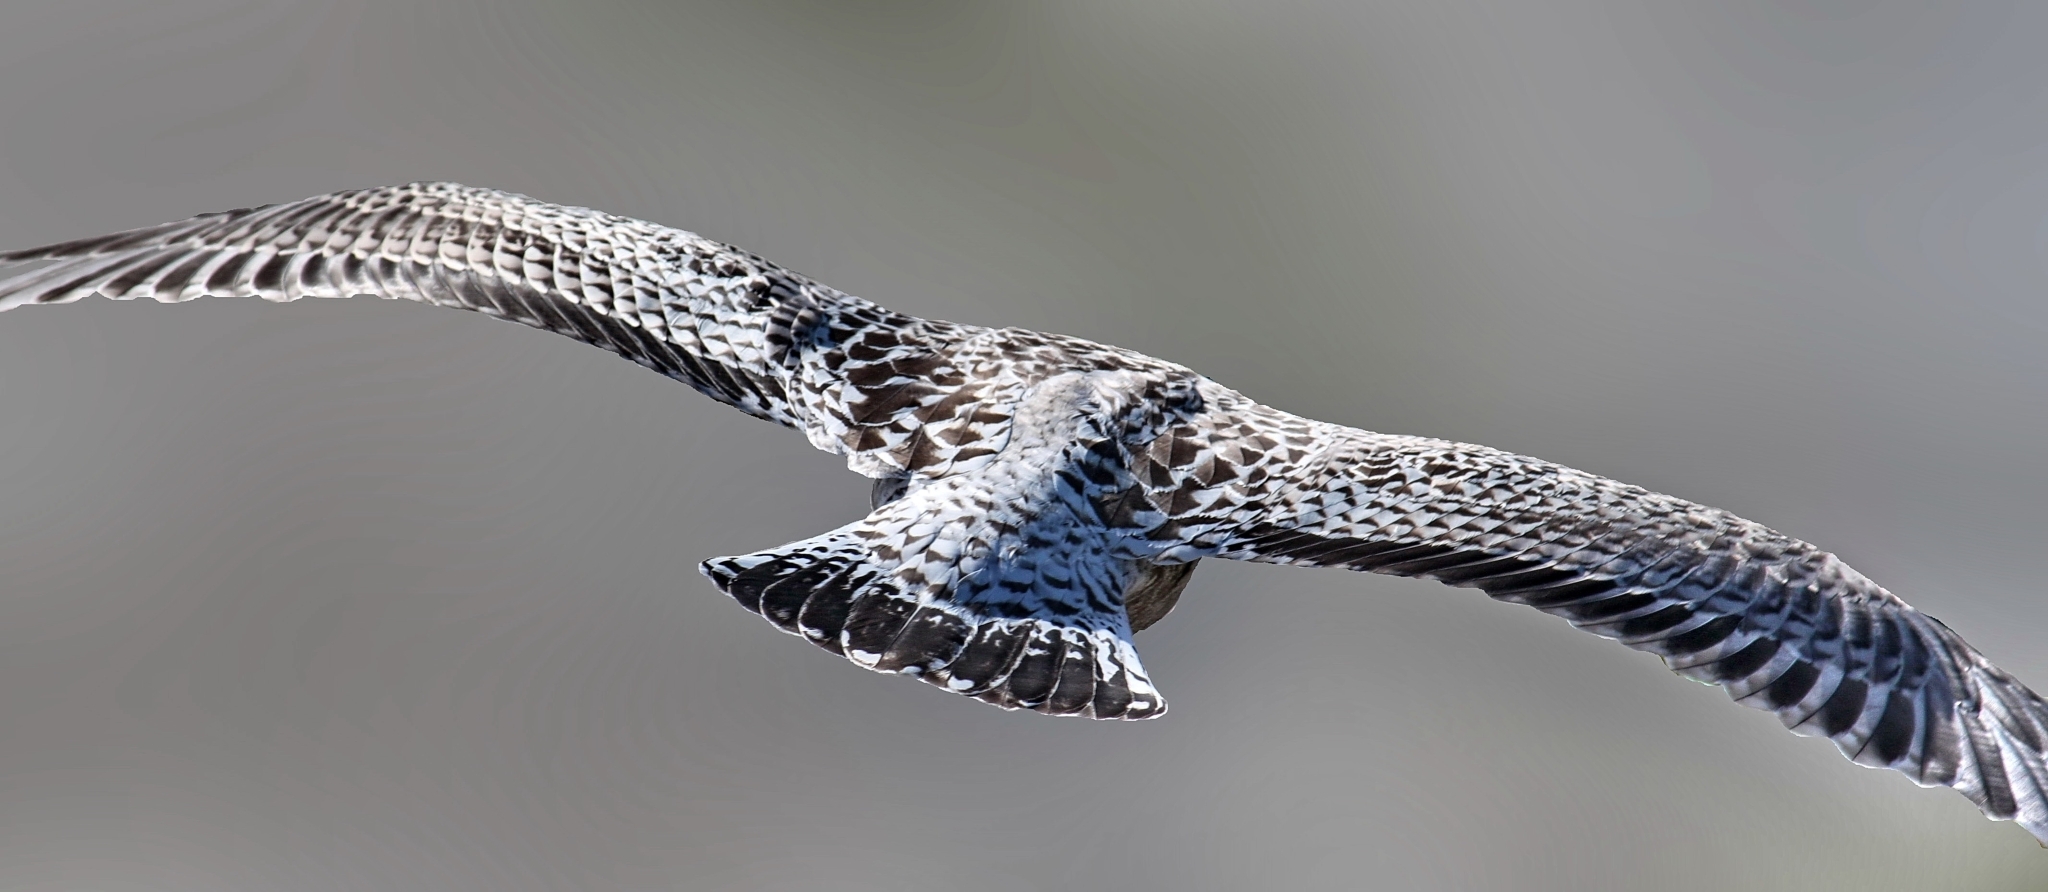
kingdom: Animalia
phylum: Chordata
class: Aves
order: Charadriiformes
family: Laridae
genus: Larus
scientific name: Larus marinus
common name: Great black-backed gull
